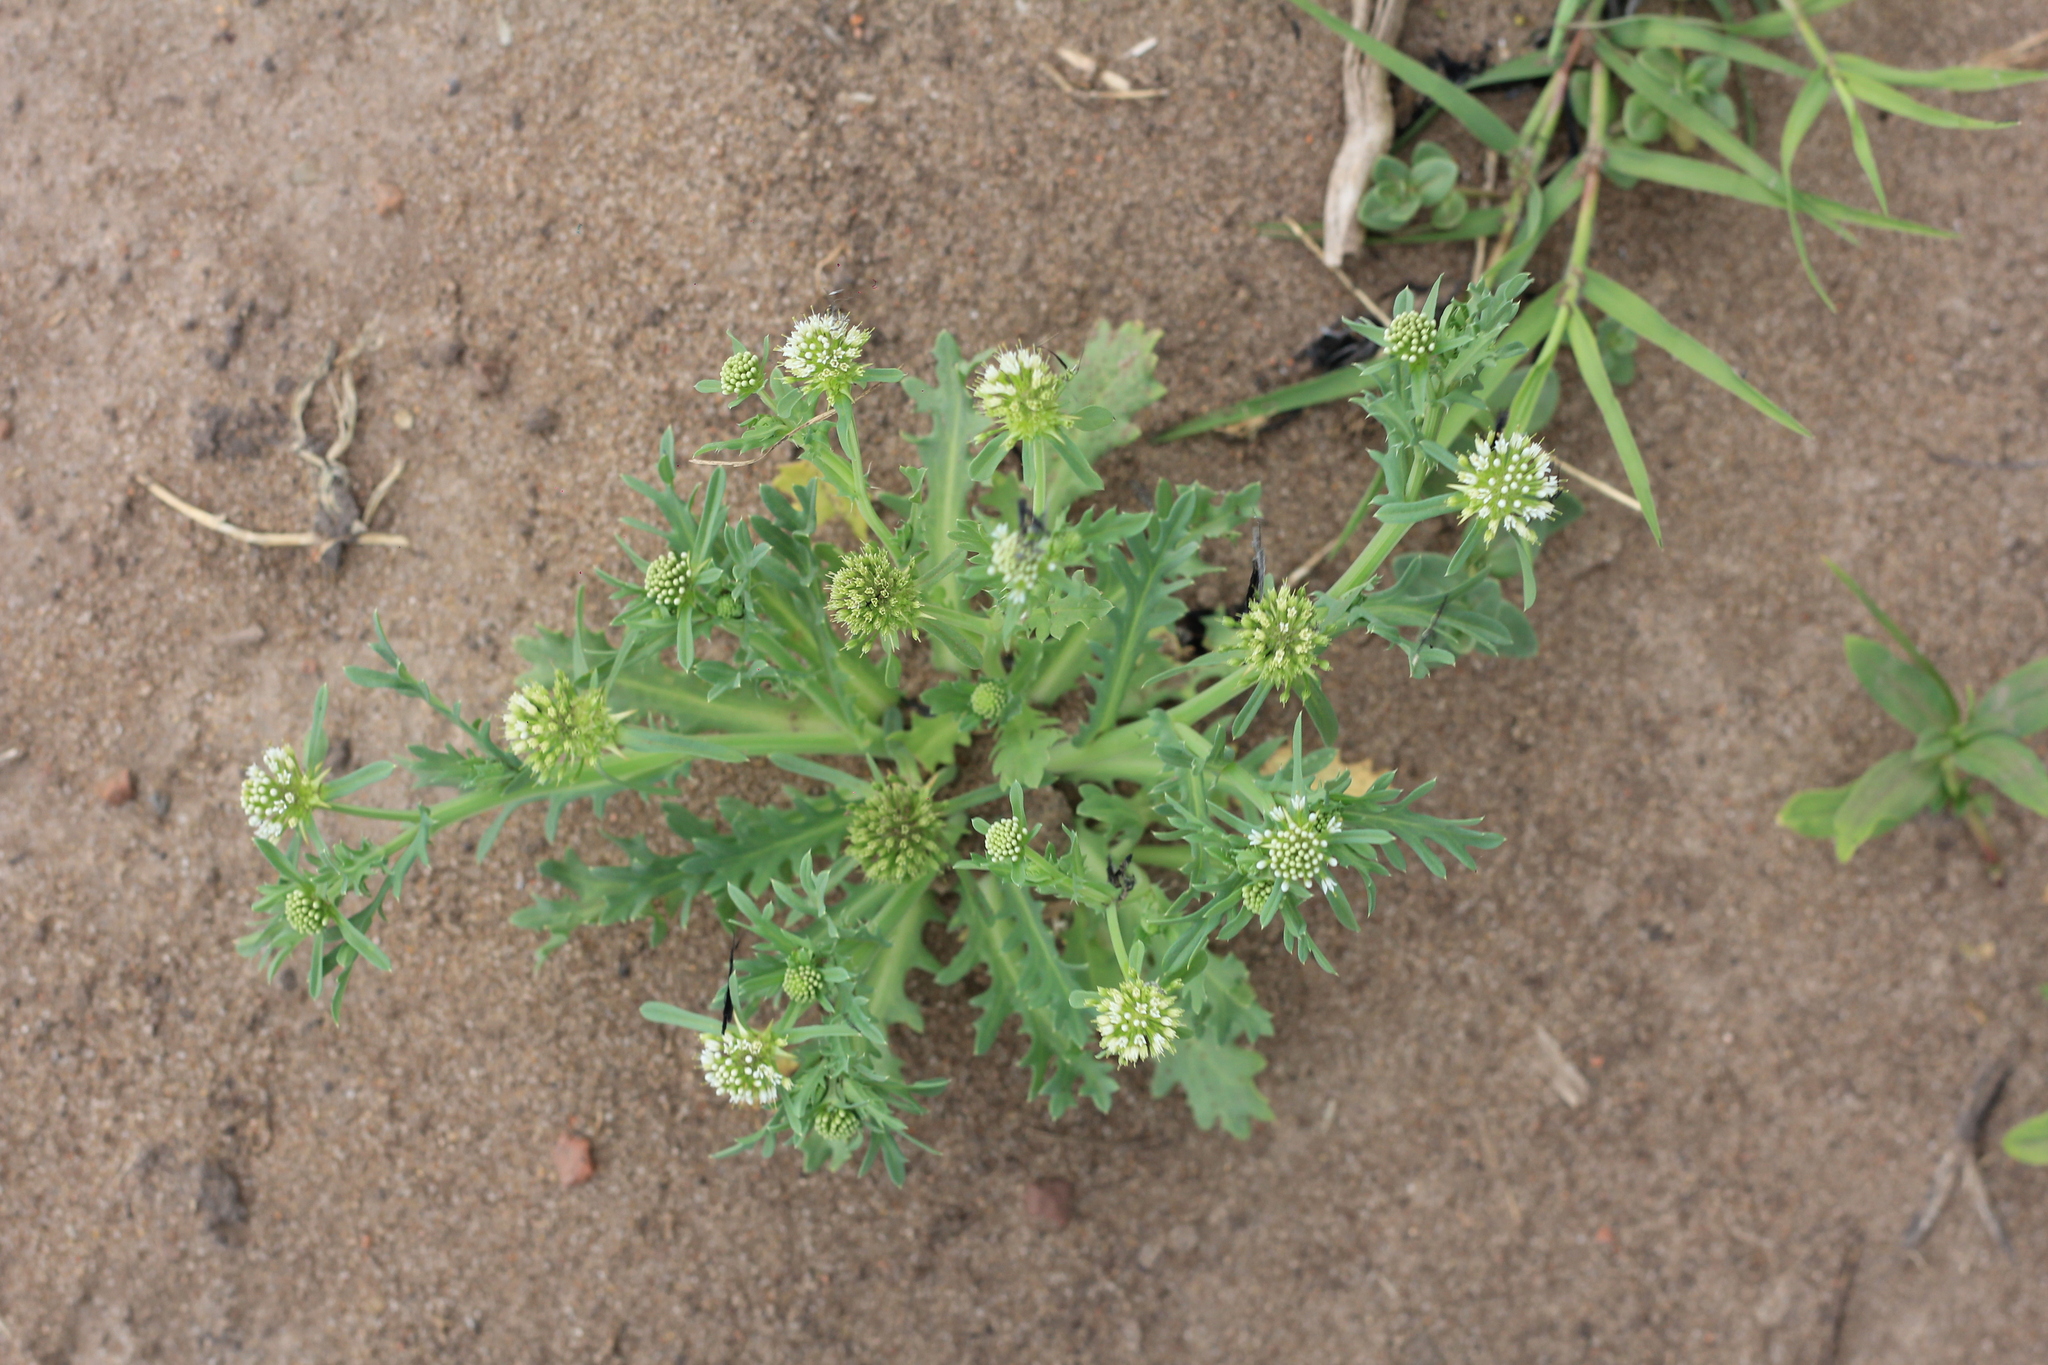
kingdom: Plantae
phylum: Tracheophyta
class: Magnoliopsida
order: Asterales
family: Calyceraceae
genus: Acicarpha
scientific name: Acicarpha tribuloides
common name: Madam gorgon
